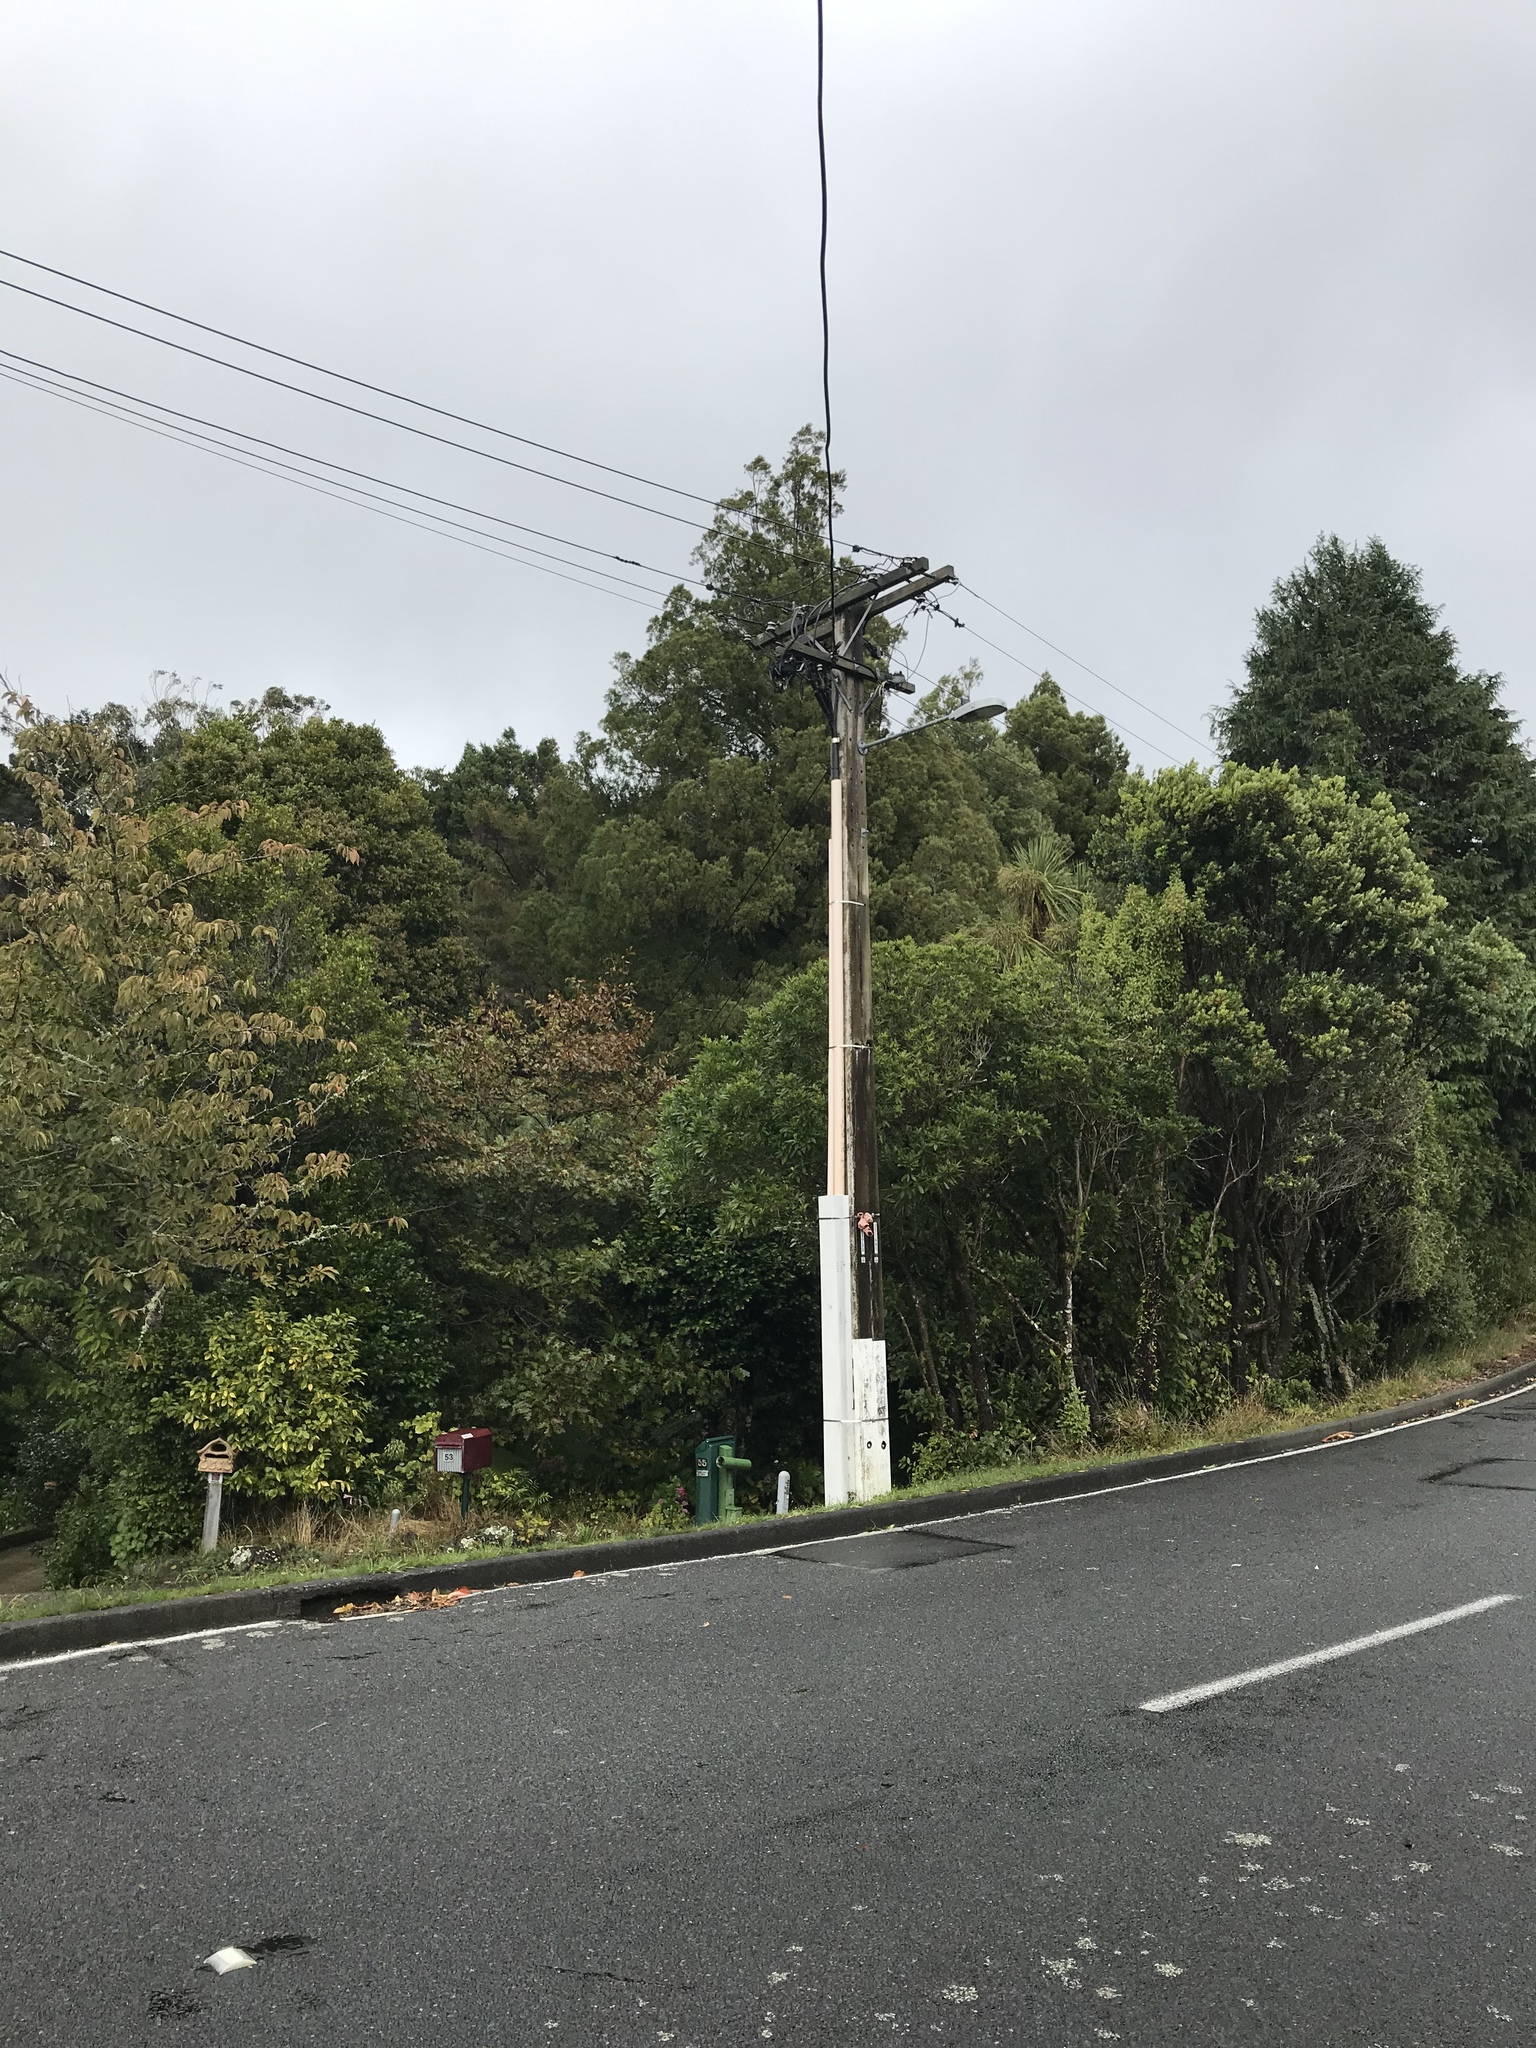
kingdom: Plantae
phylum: Tracheophyta
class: Pinopsida
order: Pinales
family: Podocarpaceae
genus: Dacrycarpus
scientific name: Dacrycarpus dacrydioides
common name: White pine
